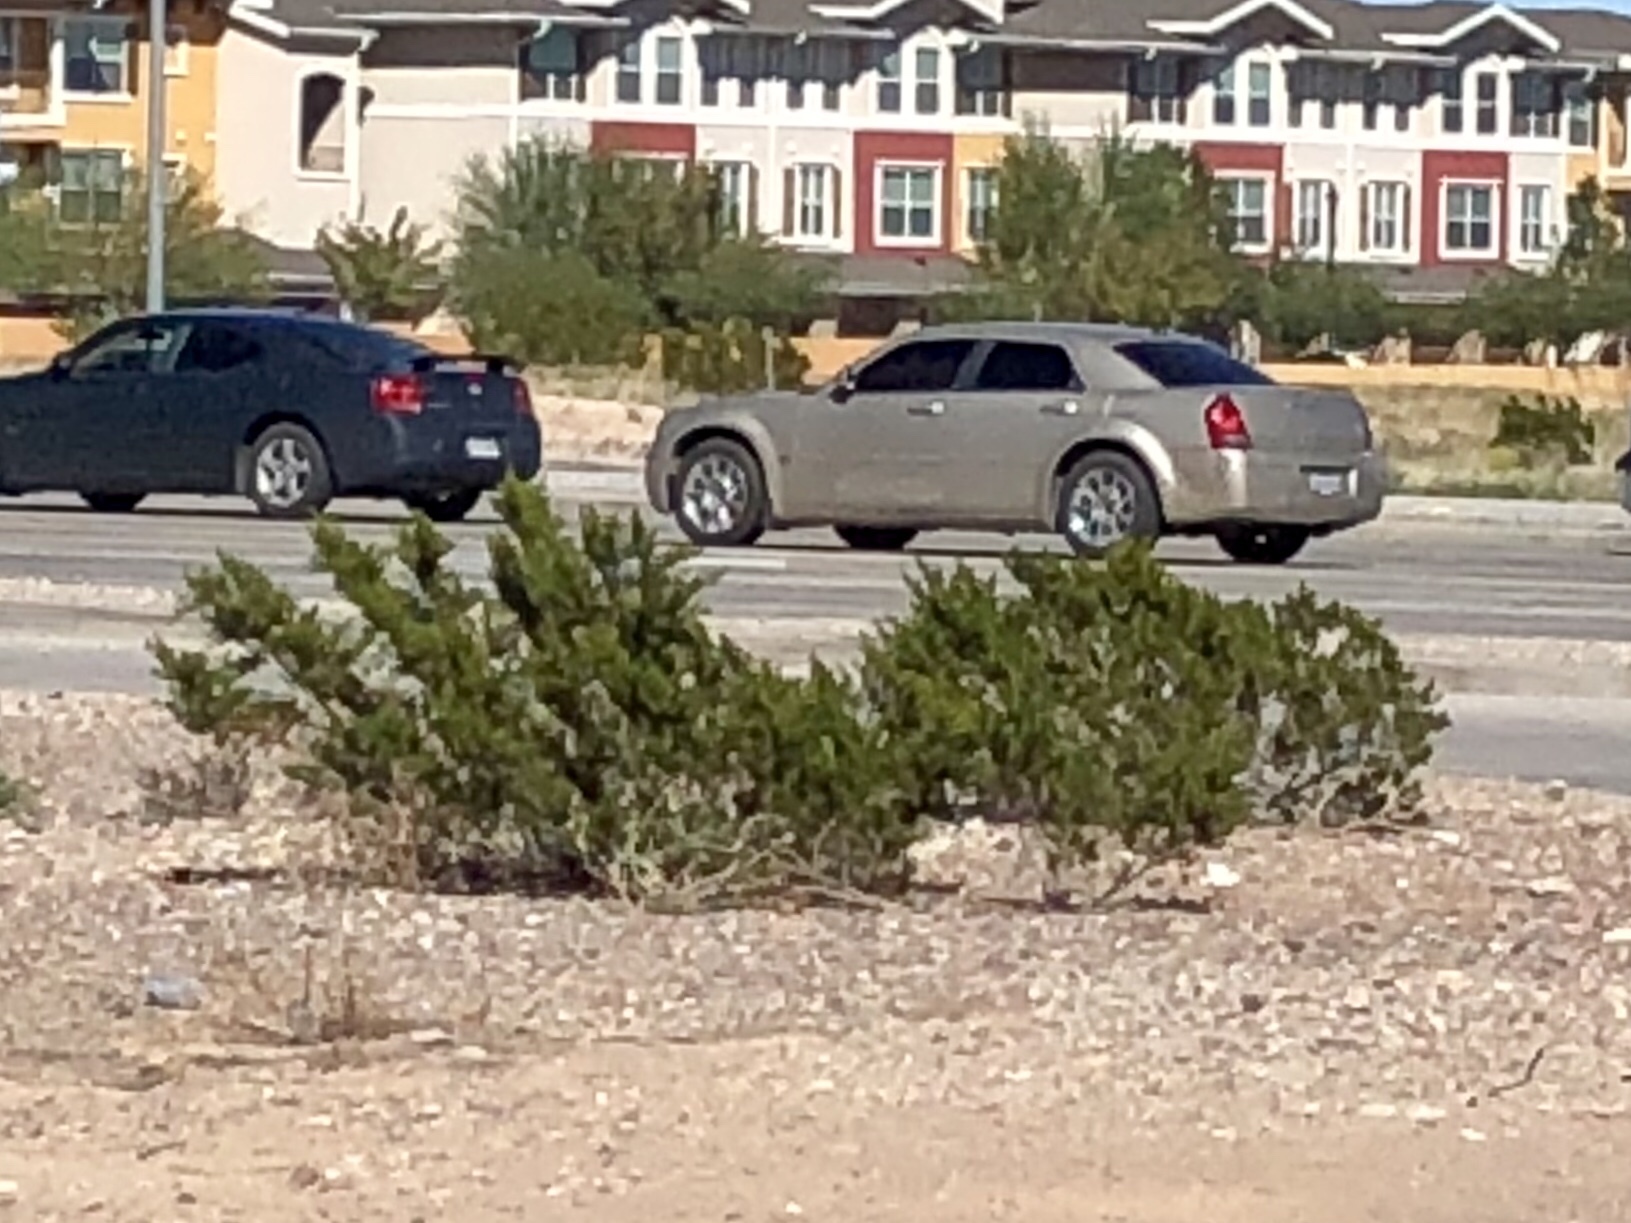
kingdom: Plantae
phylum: Tracheophyta
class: Magnoliopsida
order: Zygophyllales
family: Zygophyllaceae
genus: Larrea
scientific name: Larrea tridentata
